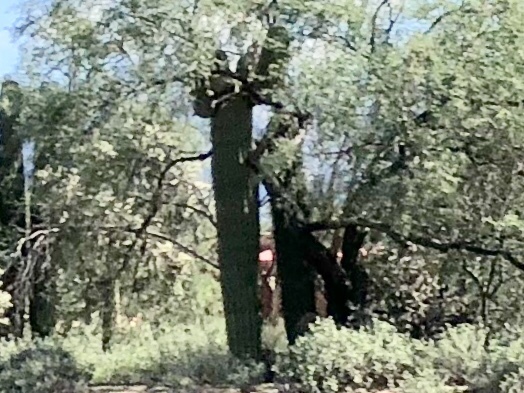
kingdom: Plantae
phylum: Tracheophyta
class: Magnoliopsida
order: Caryophyllales
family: Cactaceae
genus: Carnegiea
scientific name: Carnegiea gigantea
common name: Saguaro
